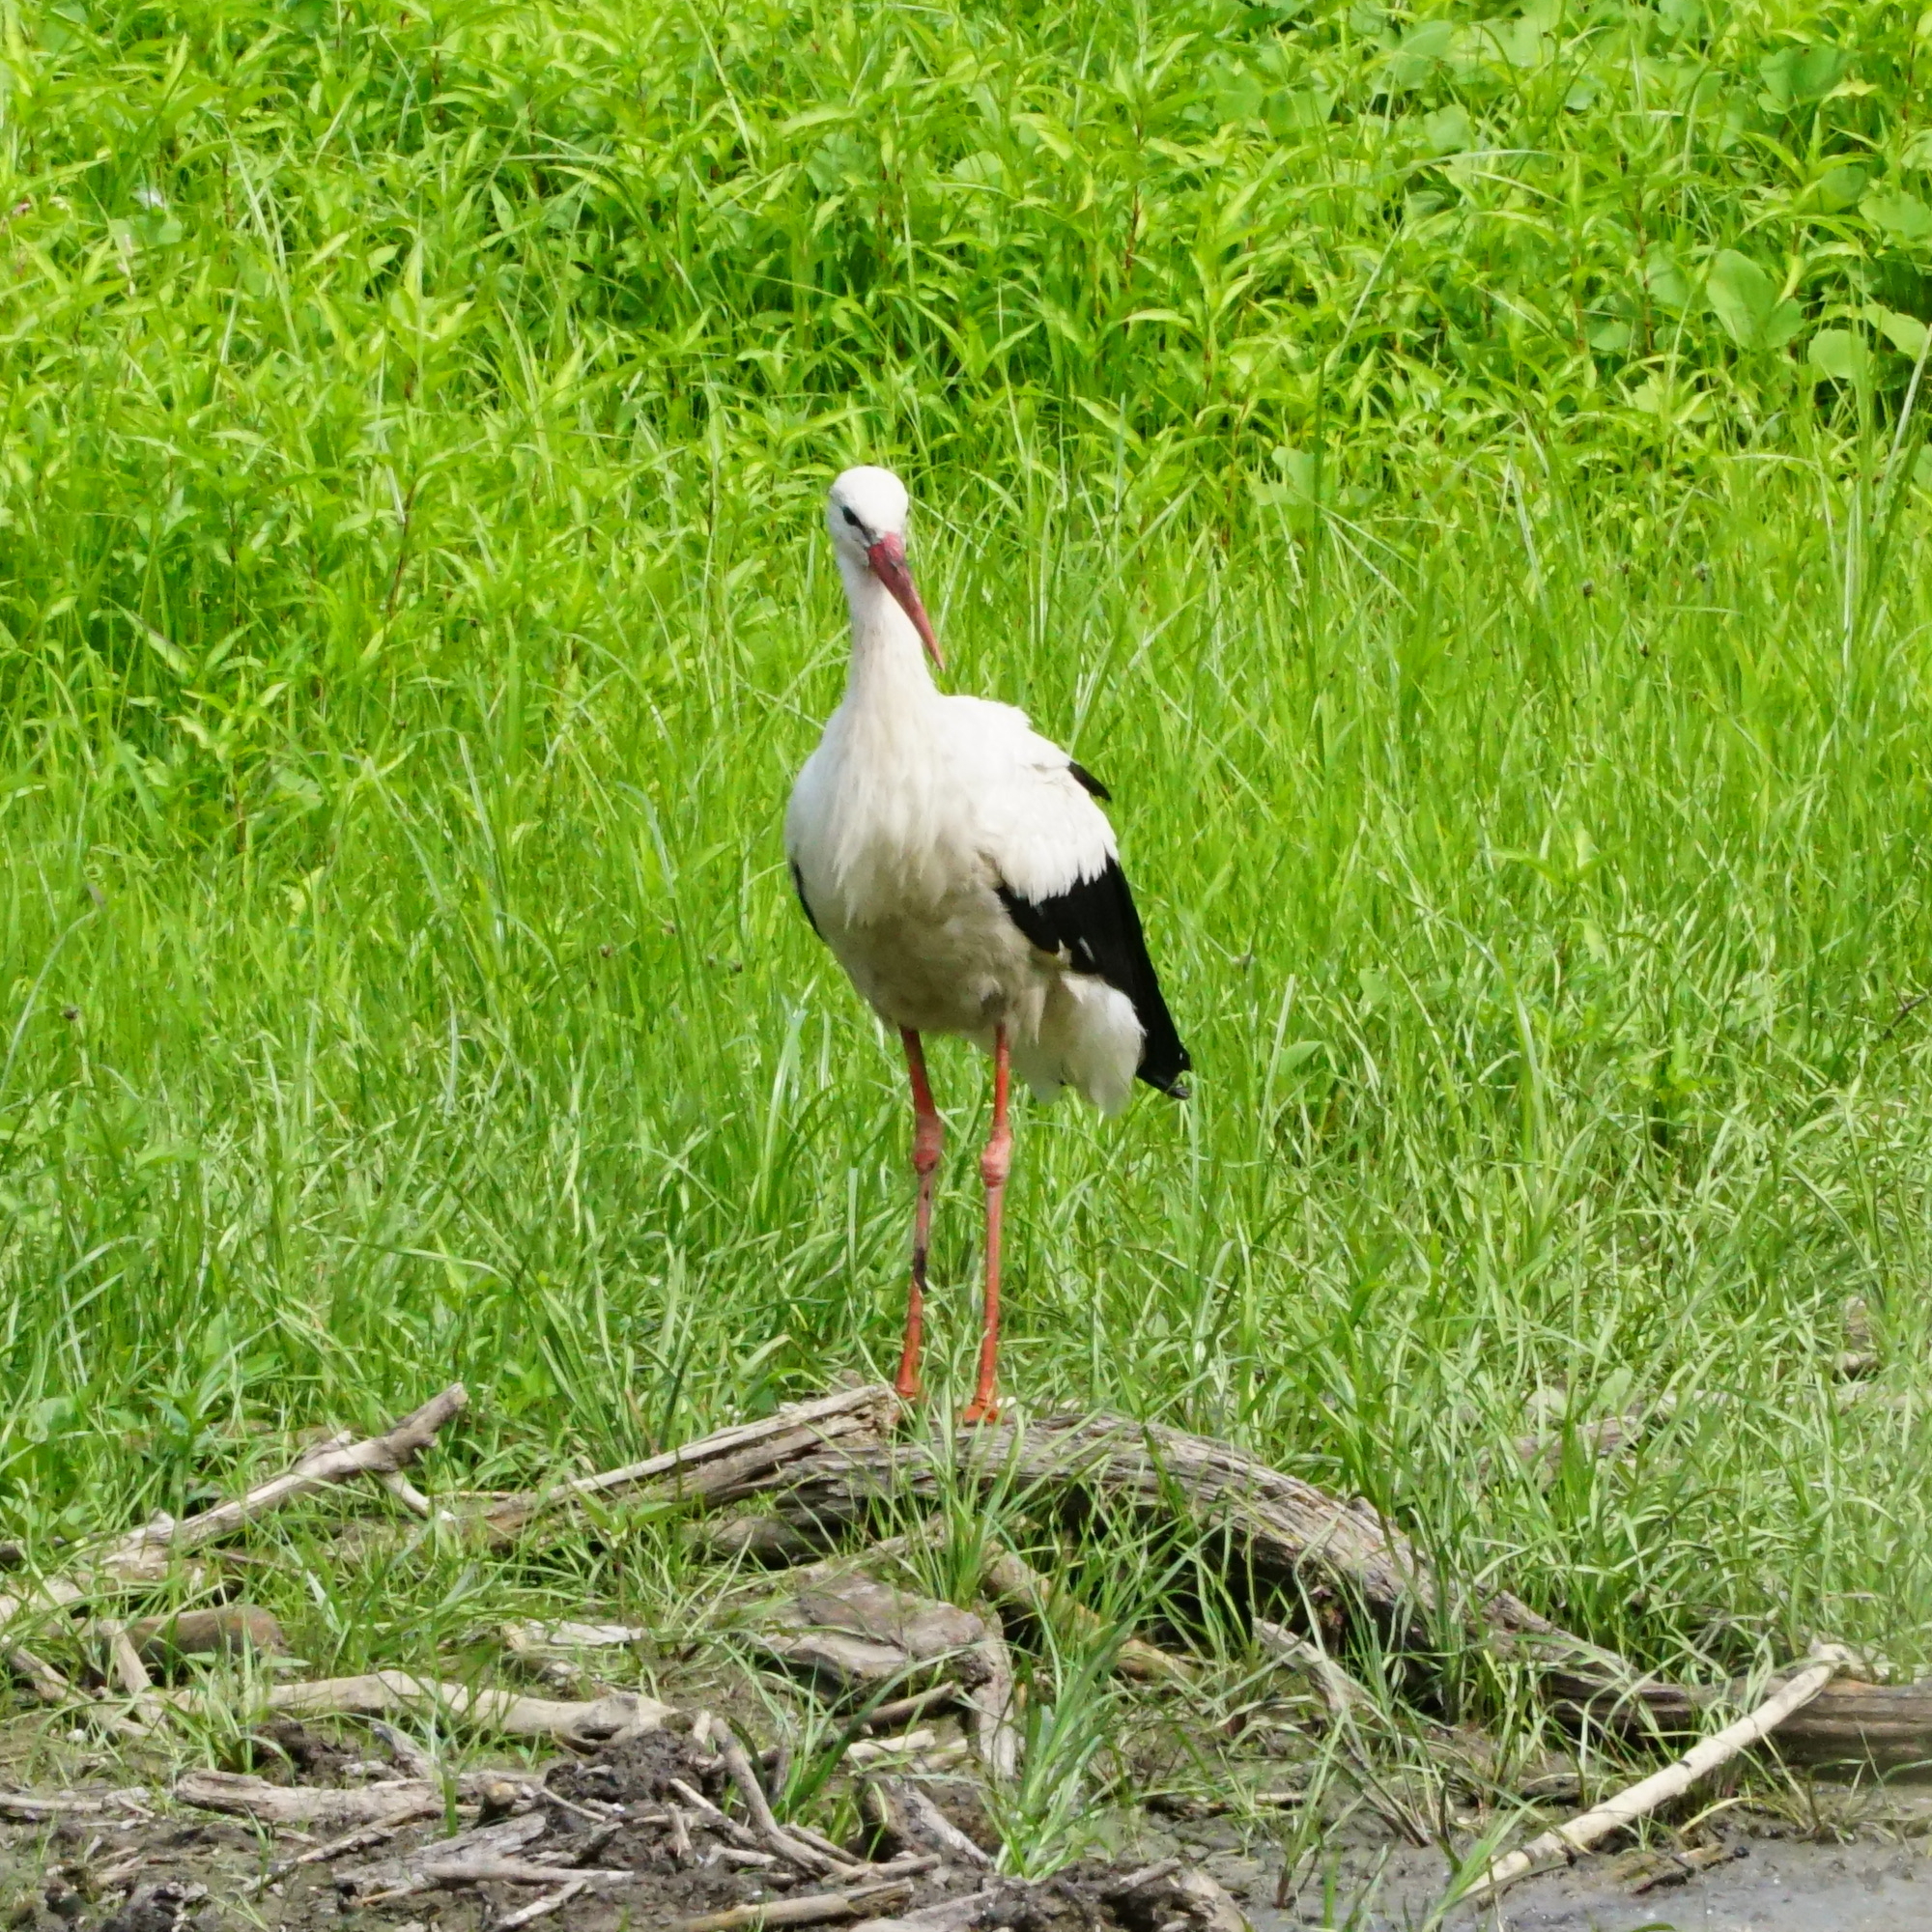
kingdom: Animalia
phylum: Chordata
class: Aves
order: Ciconiiformes
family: Ciconiidae
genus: Ciconia
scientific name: Ciconia ciconia
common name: White stork
